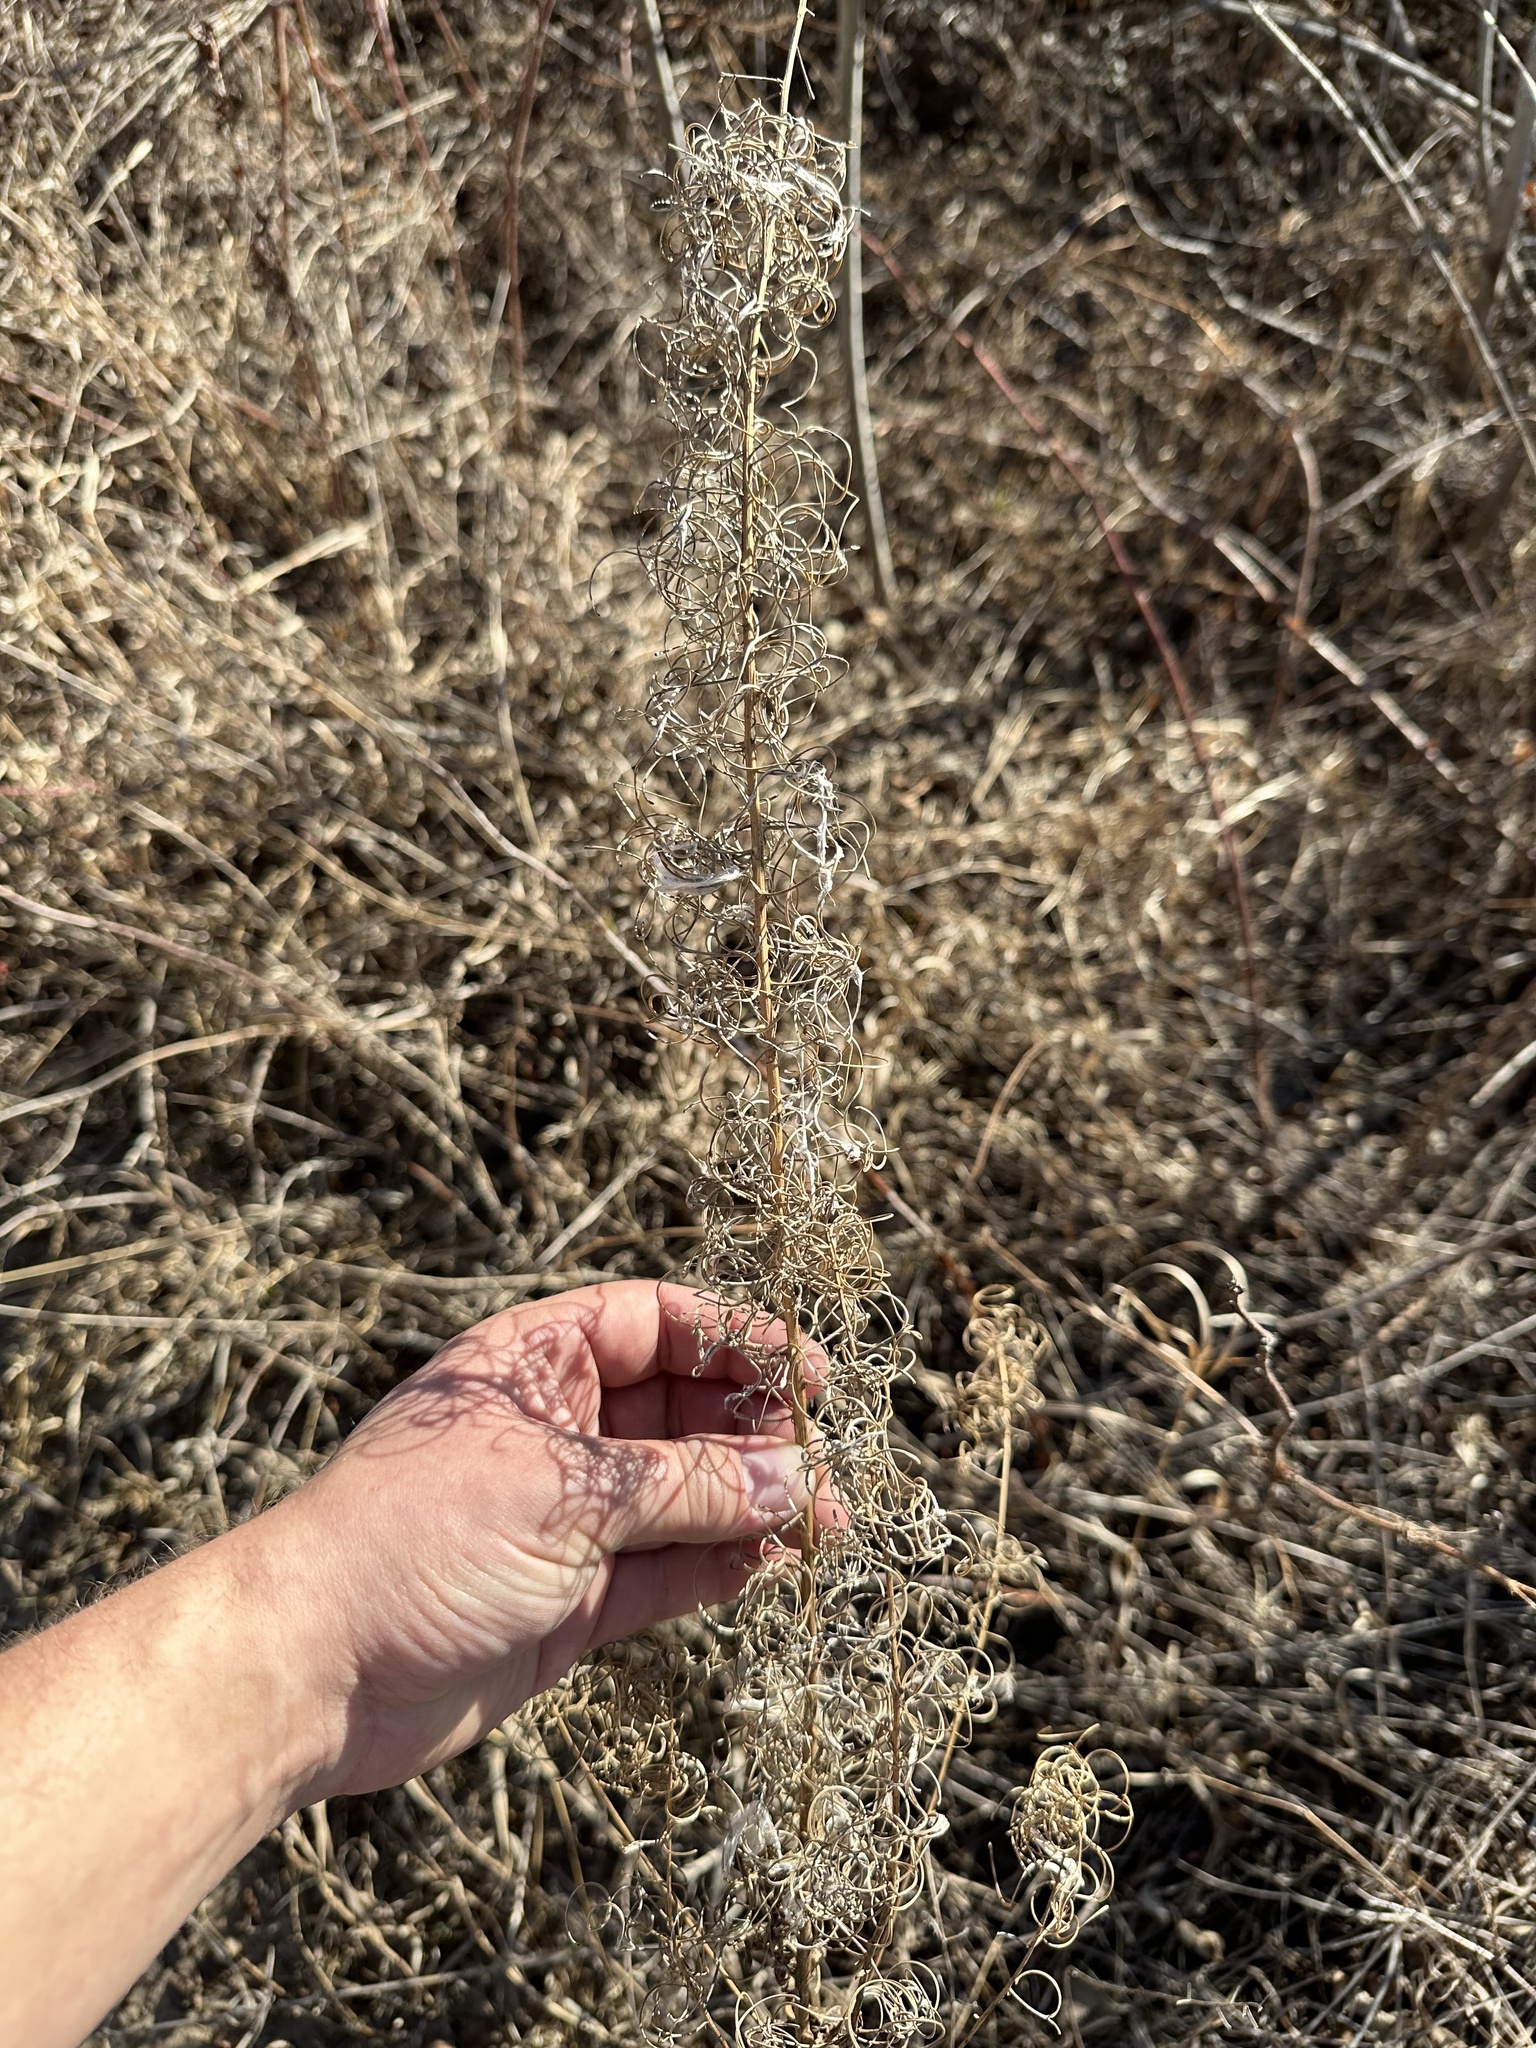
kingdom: Plantae
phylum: Tracheophyta
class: Magnoliopsida
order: Myrtales
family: Onagraceae
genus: Chamaenerion
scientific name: Chamaenerion angustifolium
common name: Fireweed
